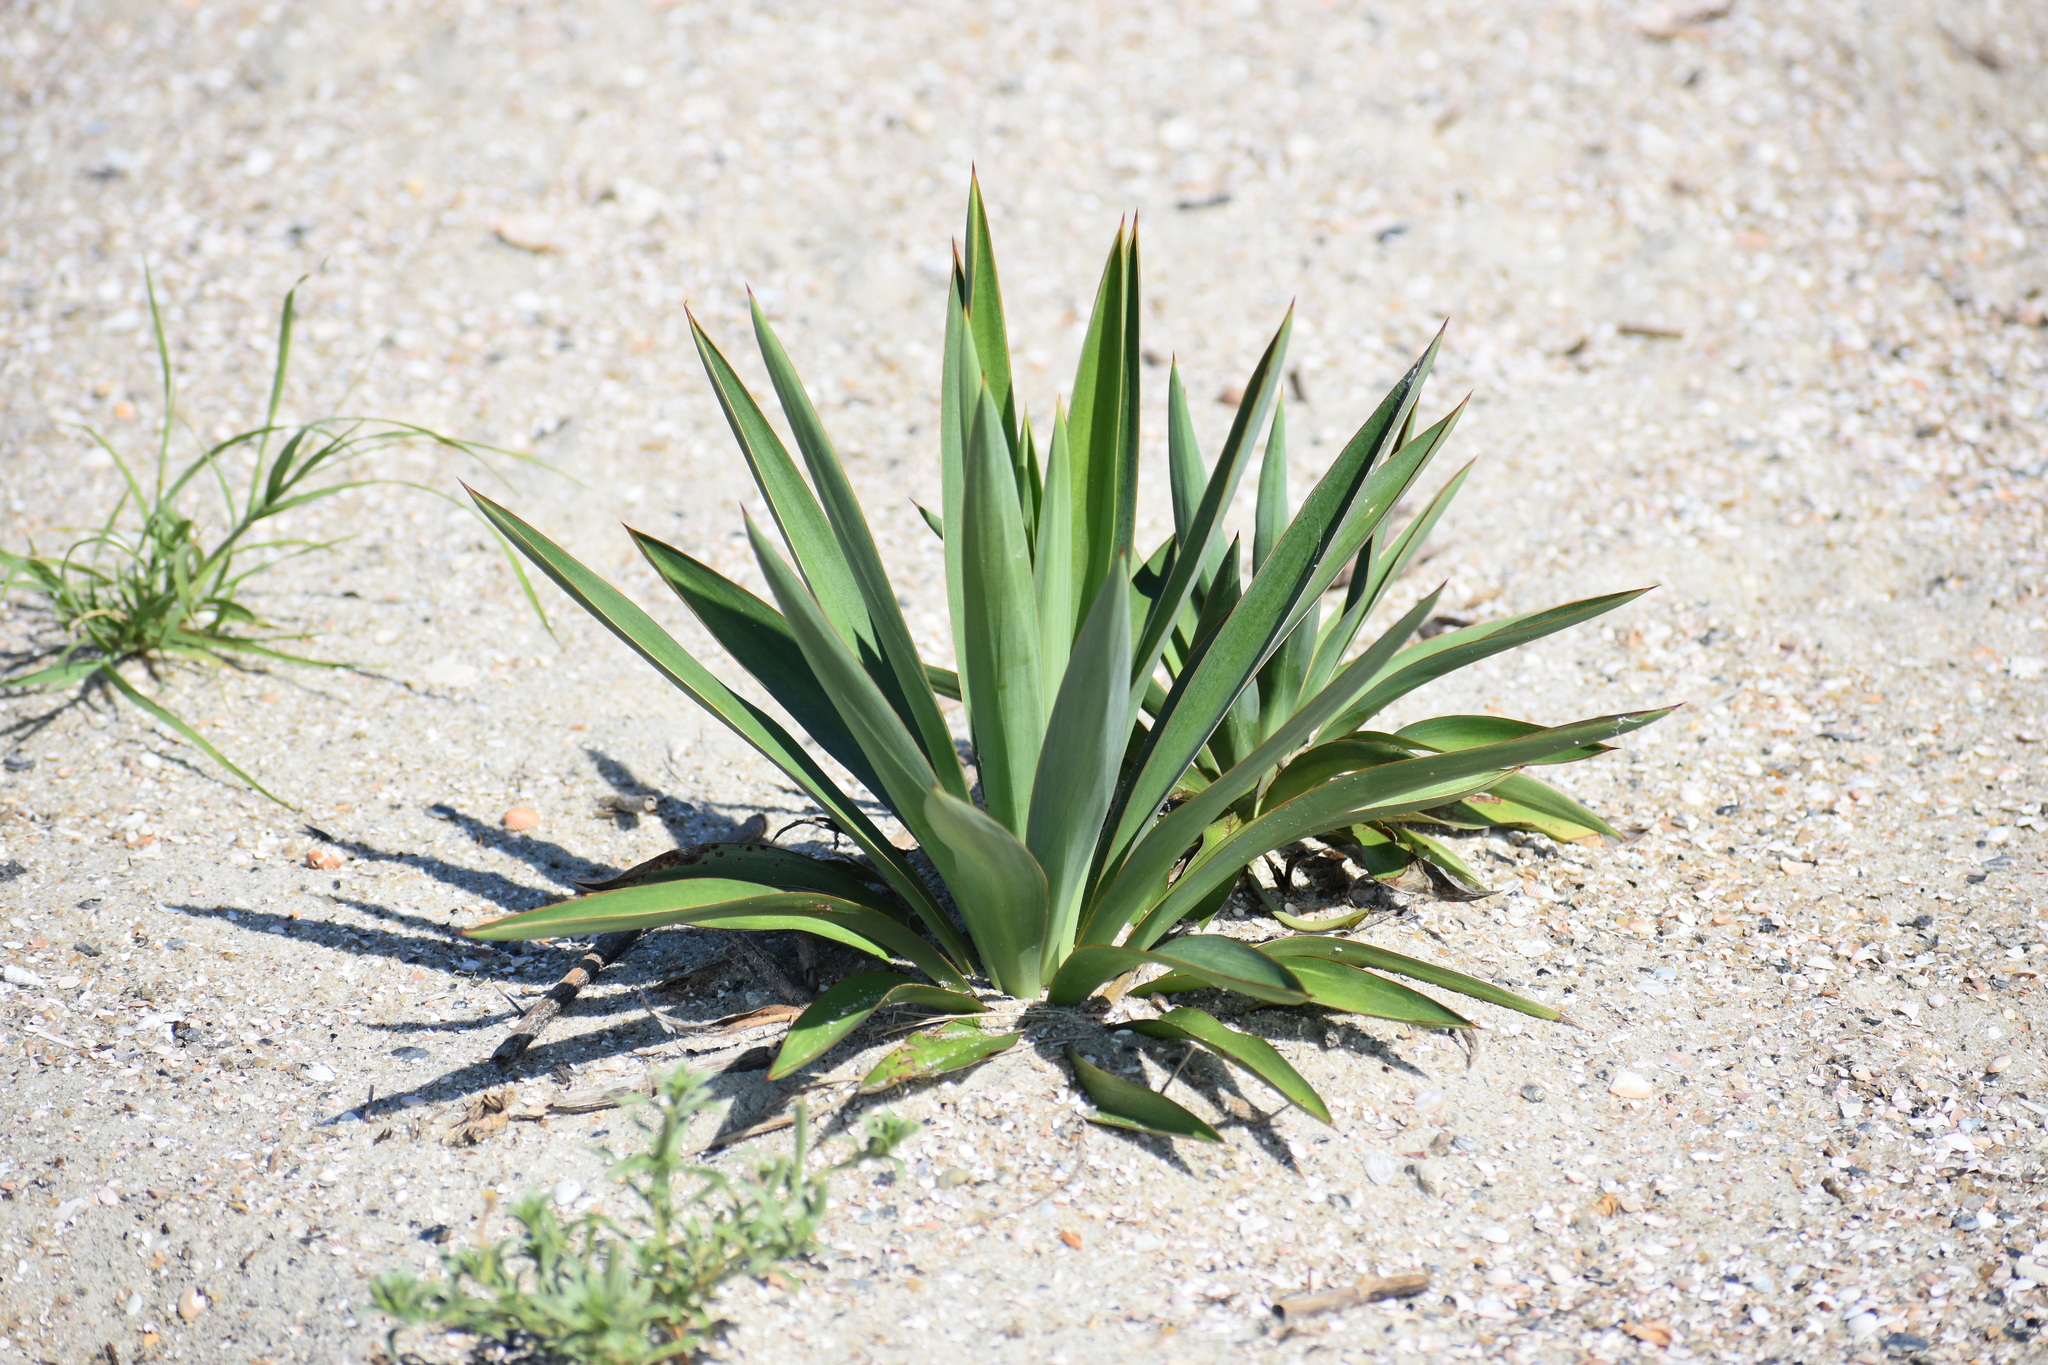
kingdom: Plantae
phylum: Tracheophyta
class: Liliopsida
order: Asparagales
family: Asparagaceae
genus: Yucca
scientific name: Yucca gloriosa
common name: Spanish-dagger
